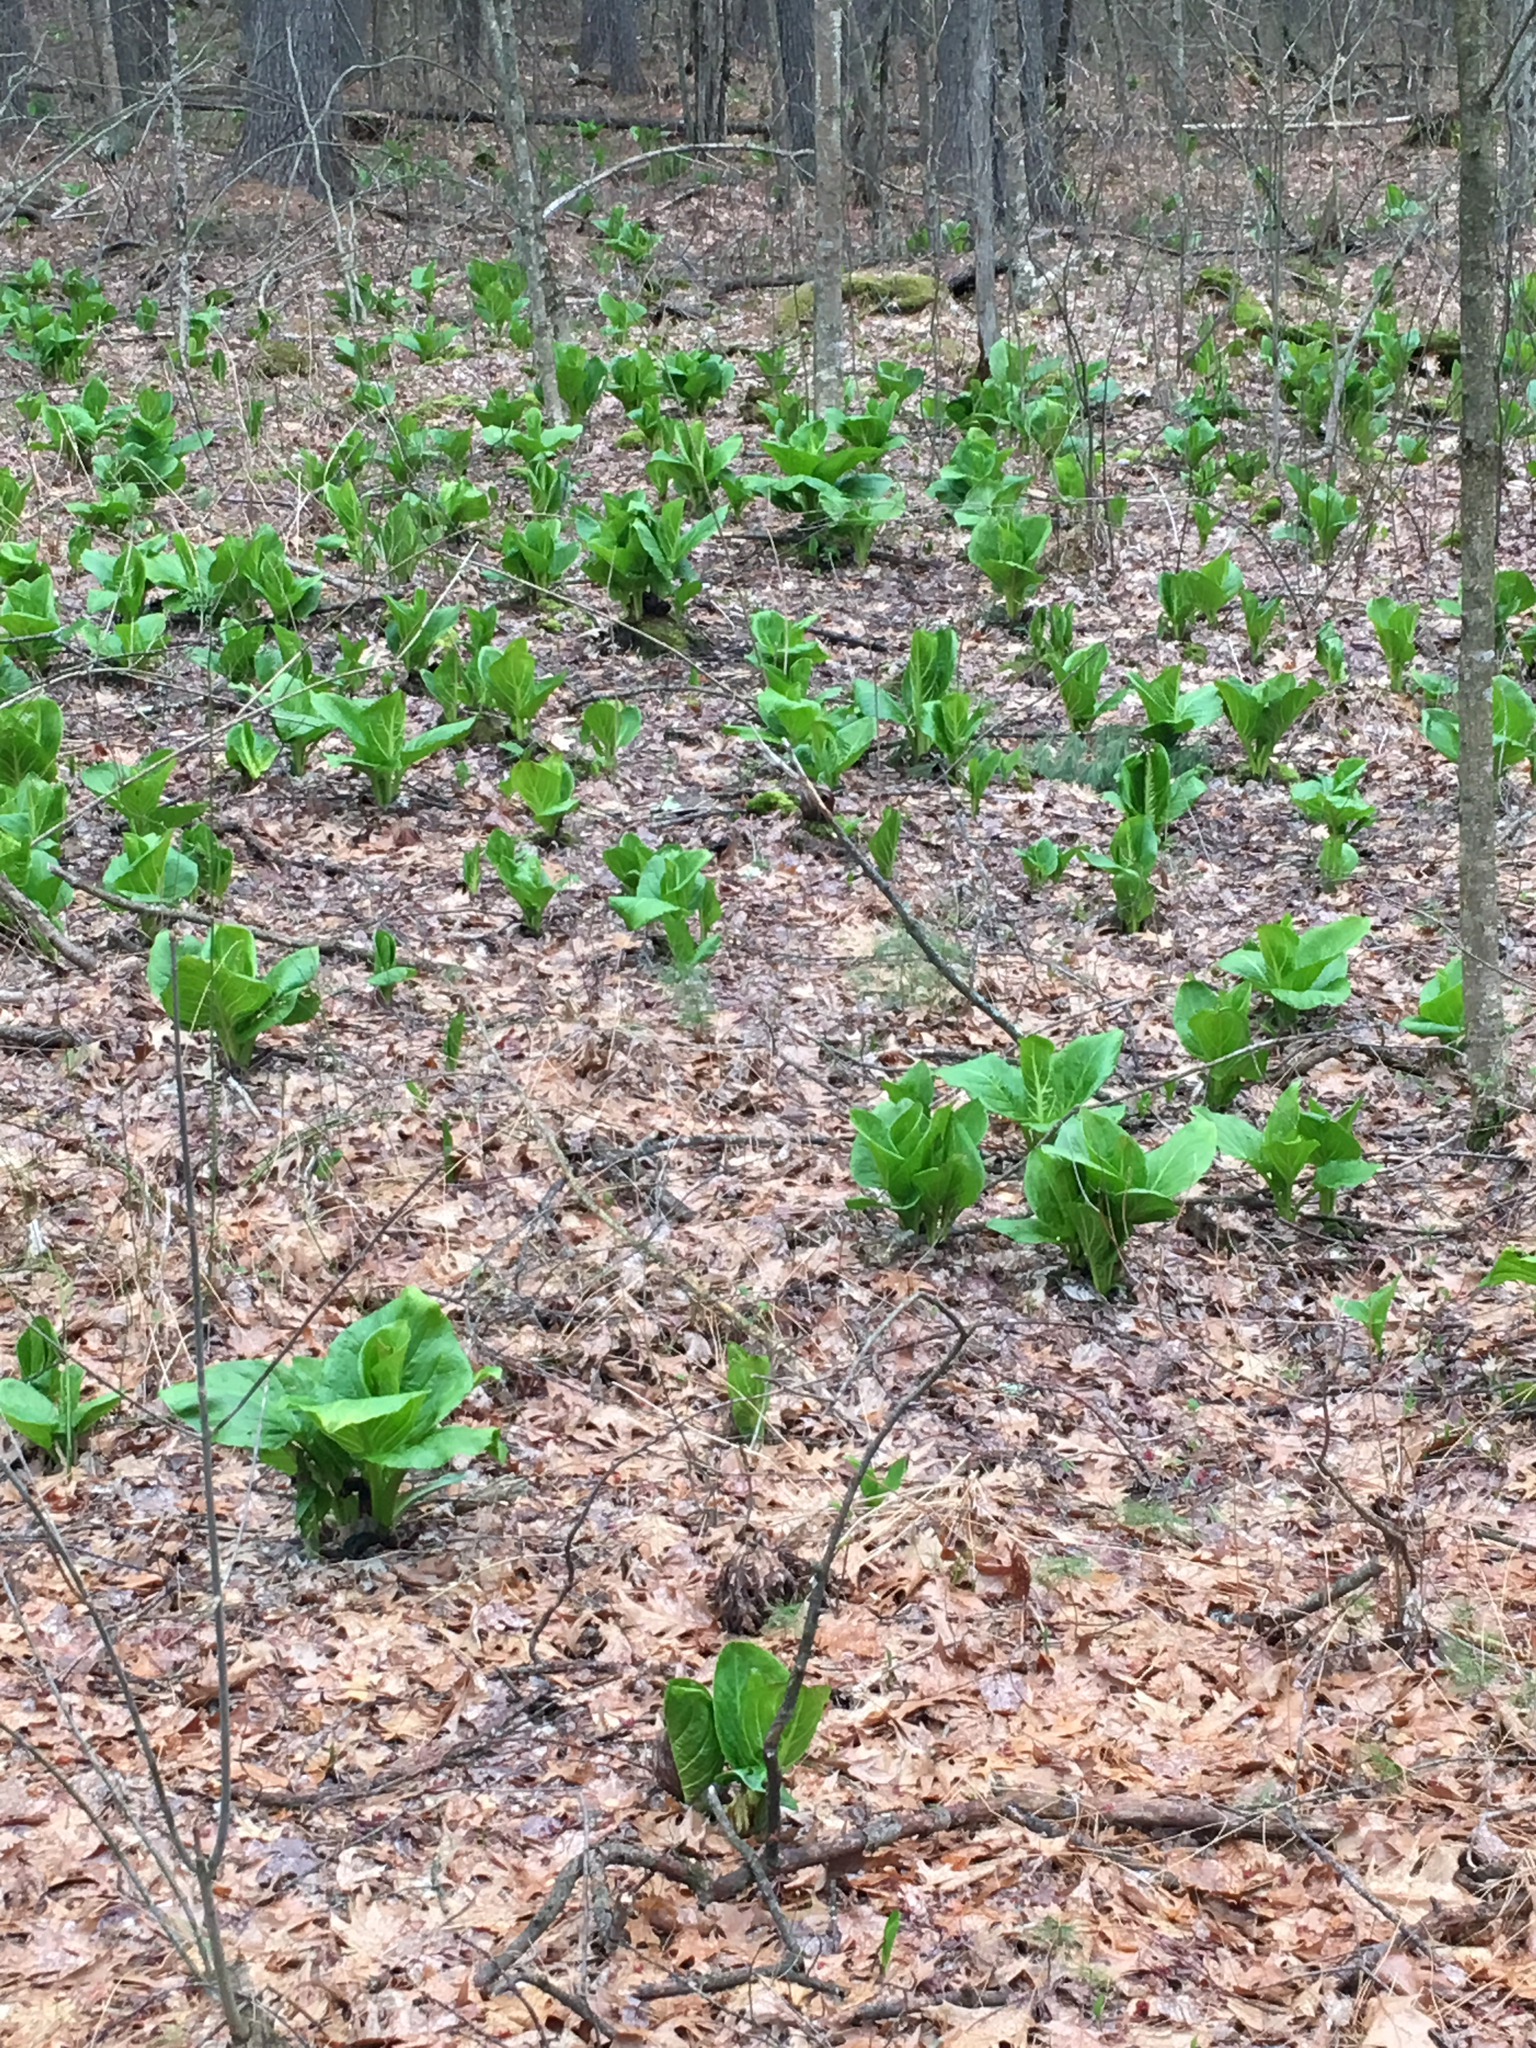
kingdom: Plantae
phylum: Tracheophyta
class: Liliopsida
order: Alismatales
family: Araceae
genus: Symplocarpus
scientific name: Symplocarpus foetidus
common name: Eastern skunk cabbage
